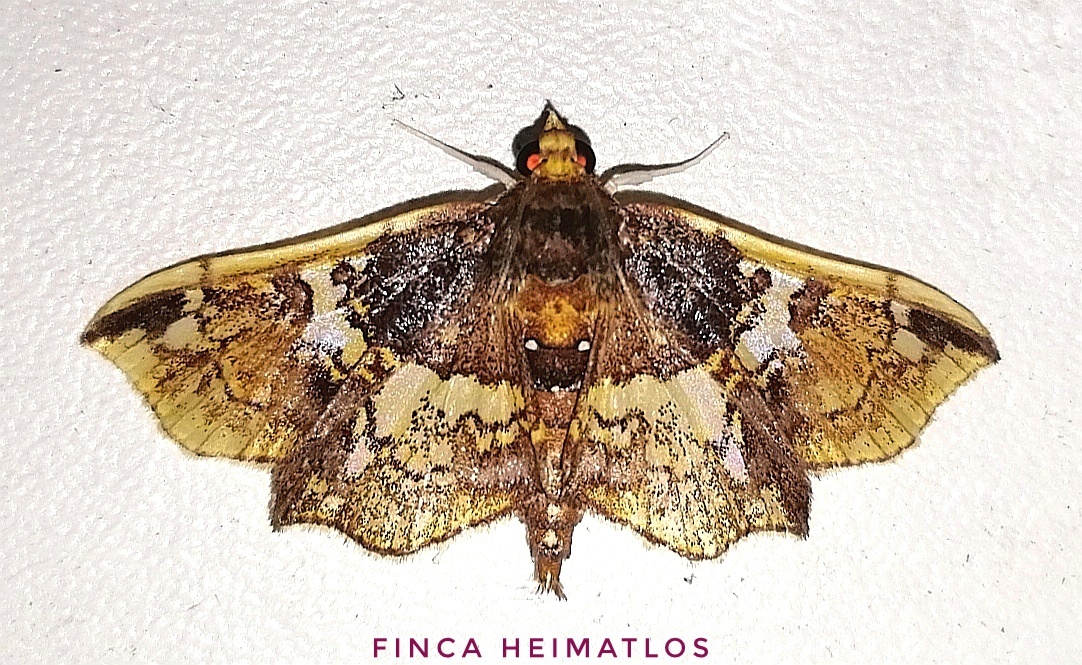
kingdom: Animalia
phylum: Arthropoda
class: Insecta
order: Lepidoptera
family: Crambidae
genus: Megastes
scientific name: Megastes erythrostolalis
